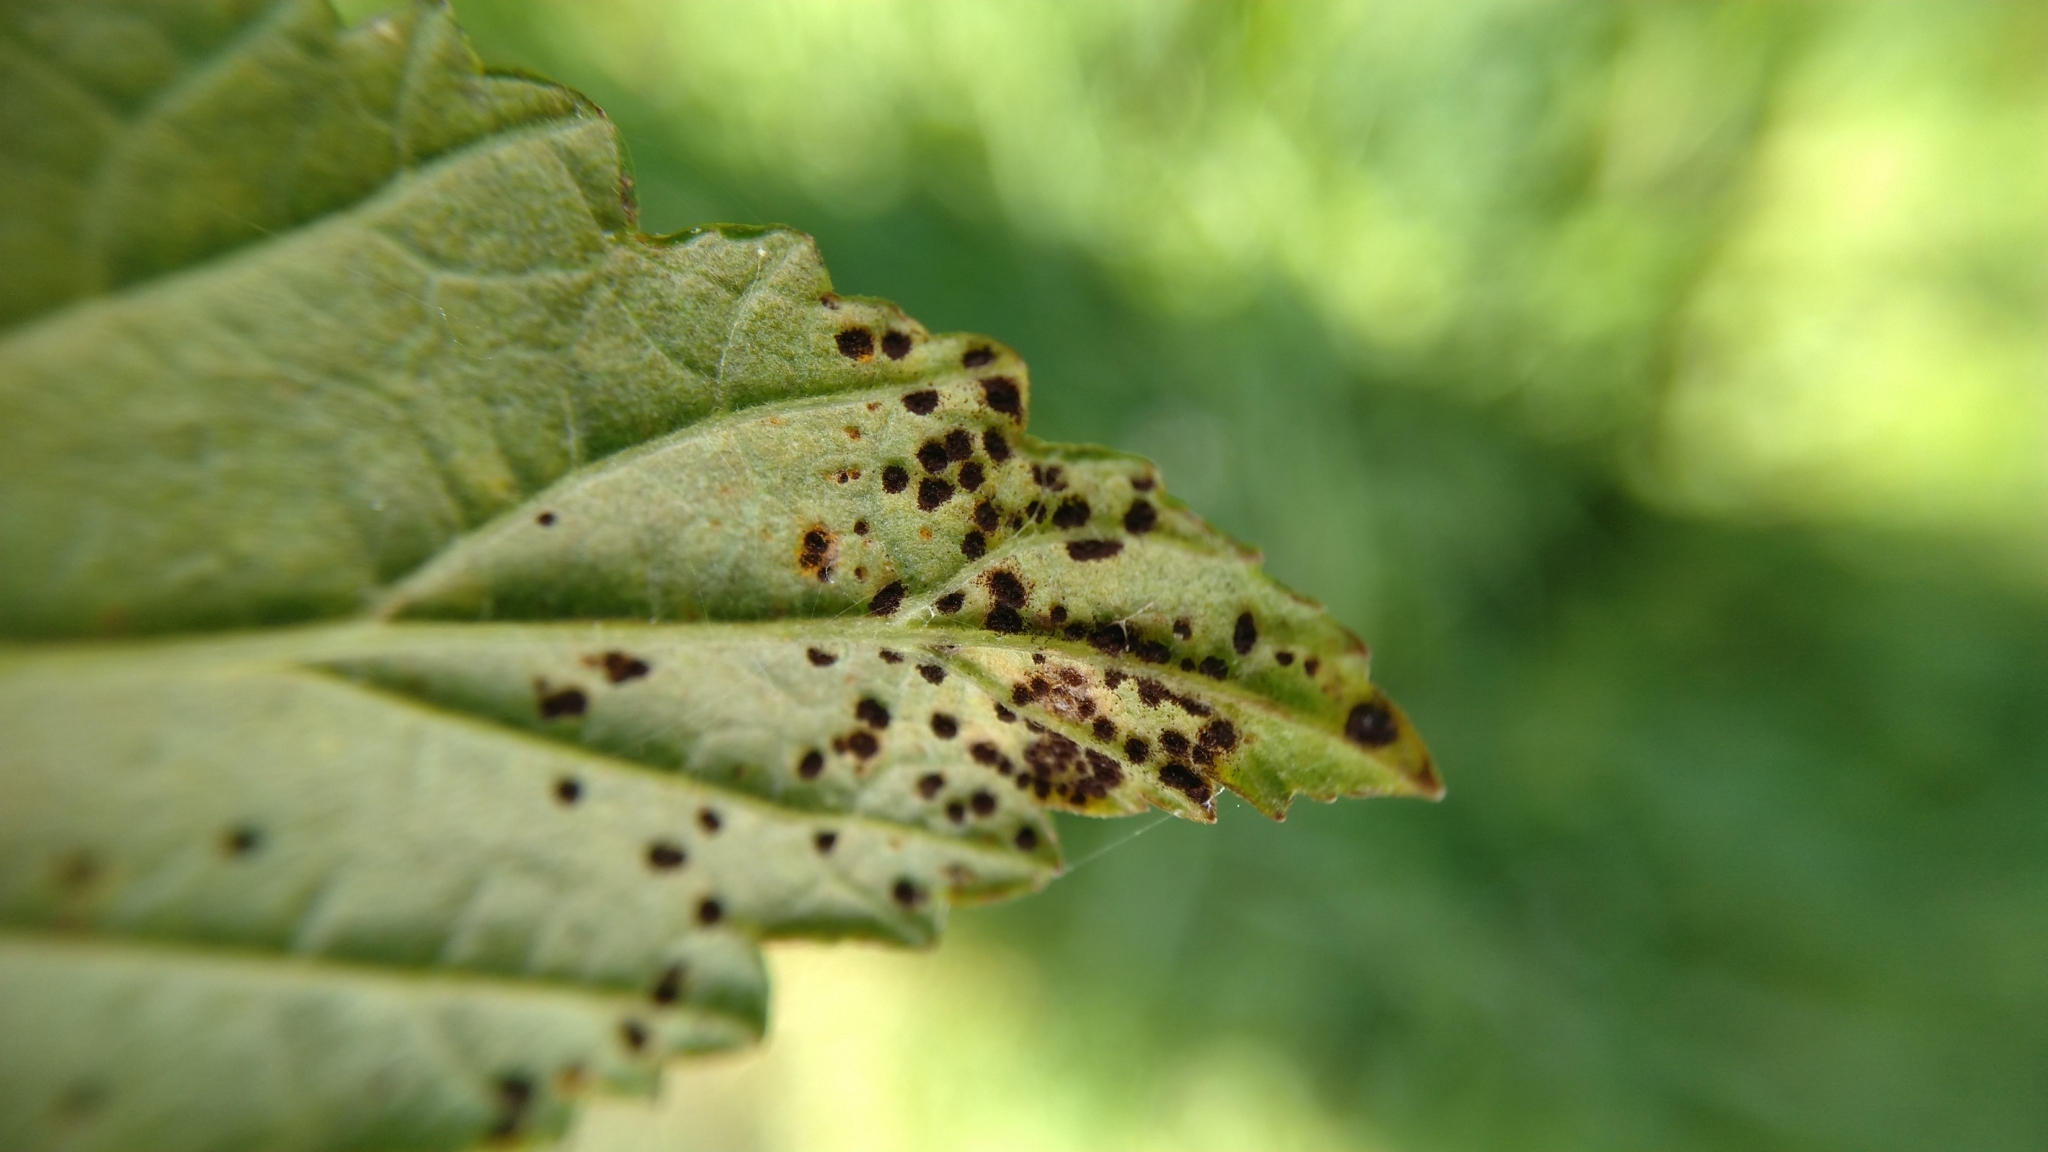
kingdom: Fungi
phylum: Basidiomycota
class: Pucciniomycetes
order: Pucciniales
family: Raveneliaceae
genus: Triphragmium
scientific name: Triphragmium ulmariae
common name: Meadowsweet rust
